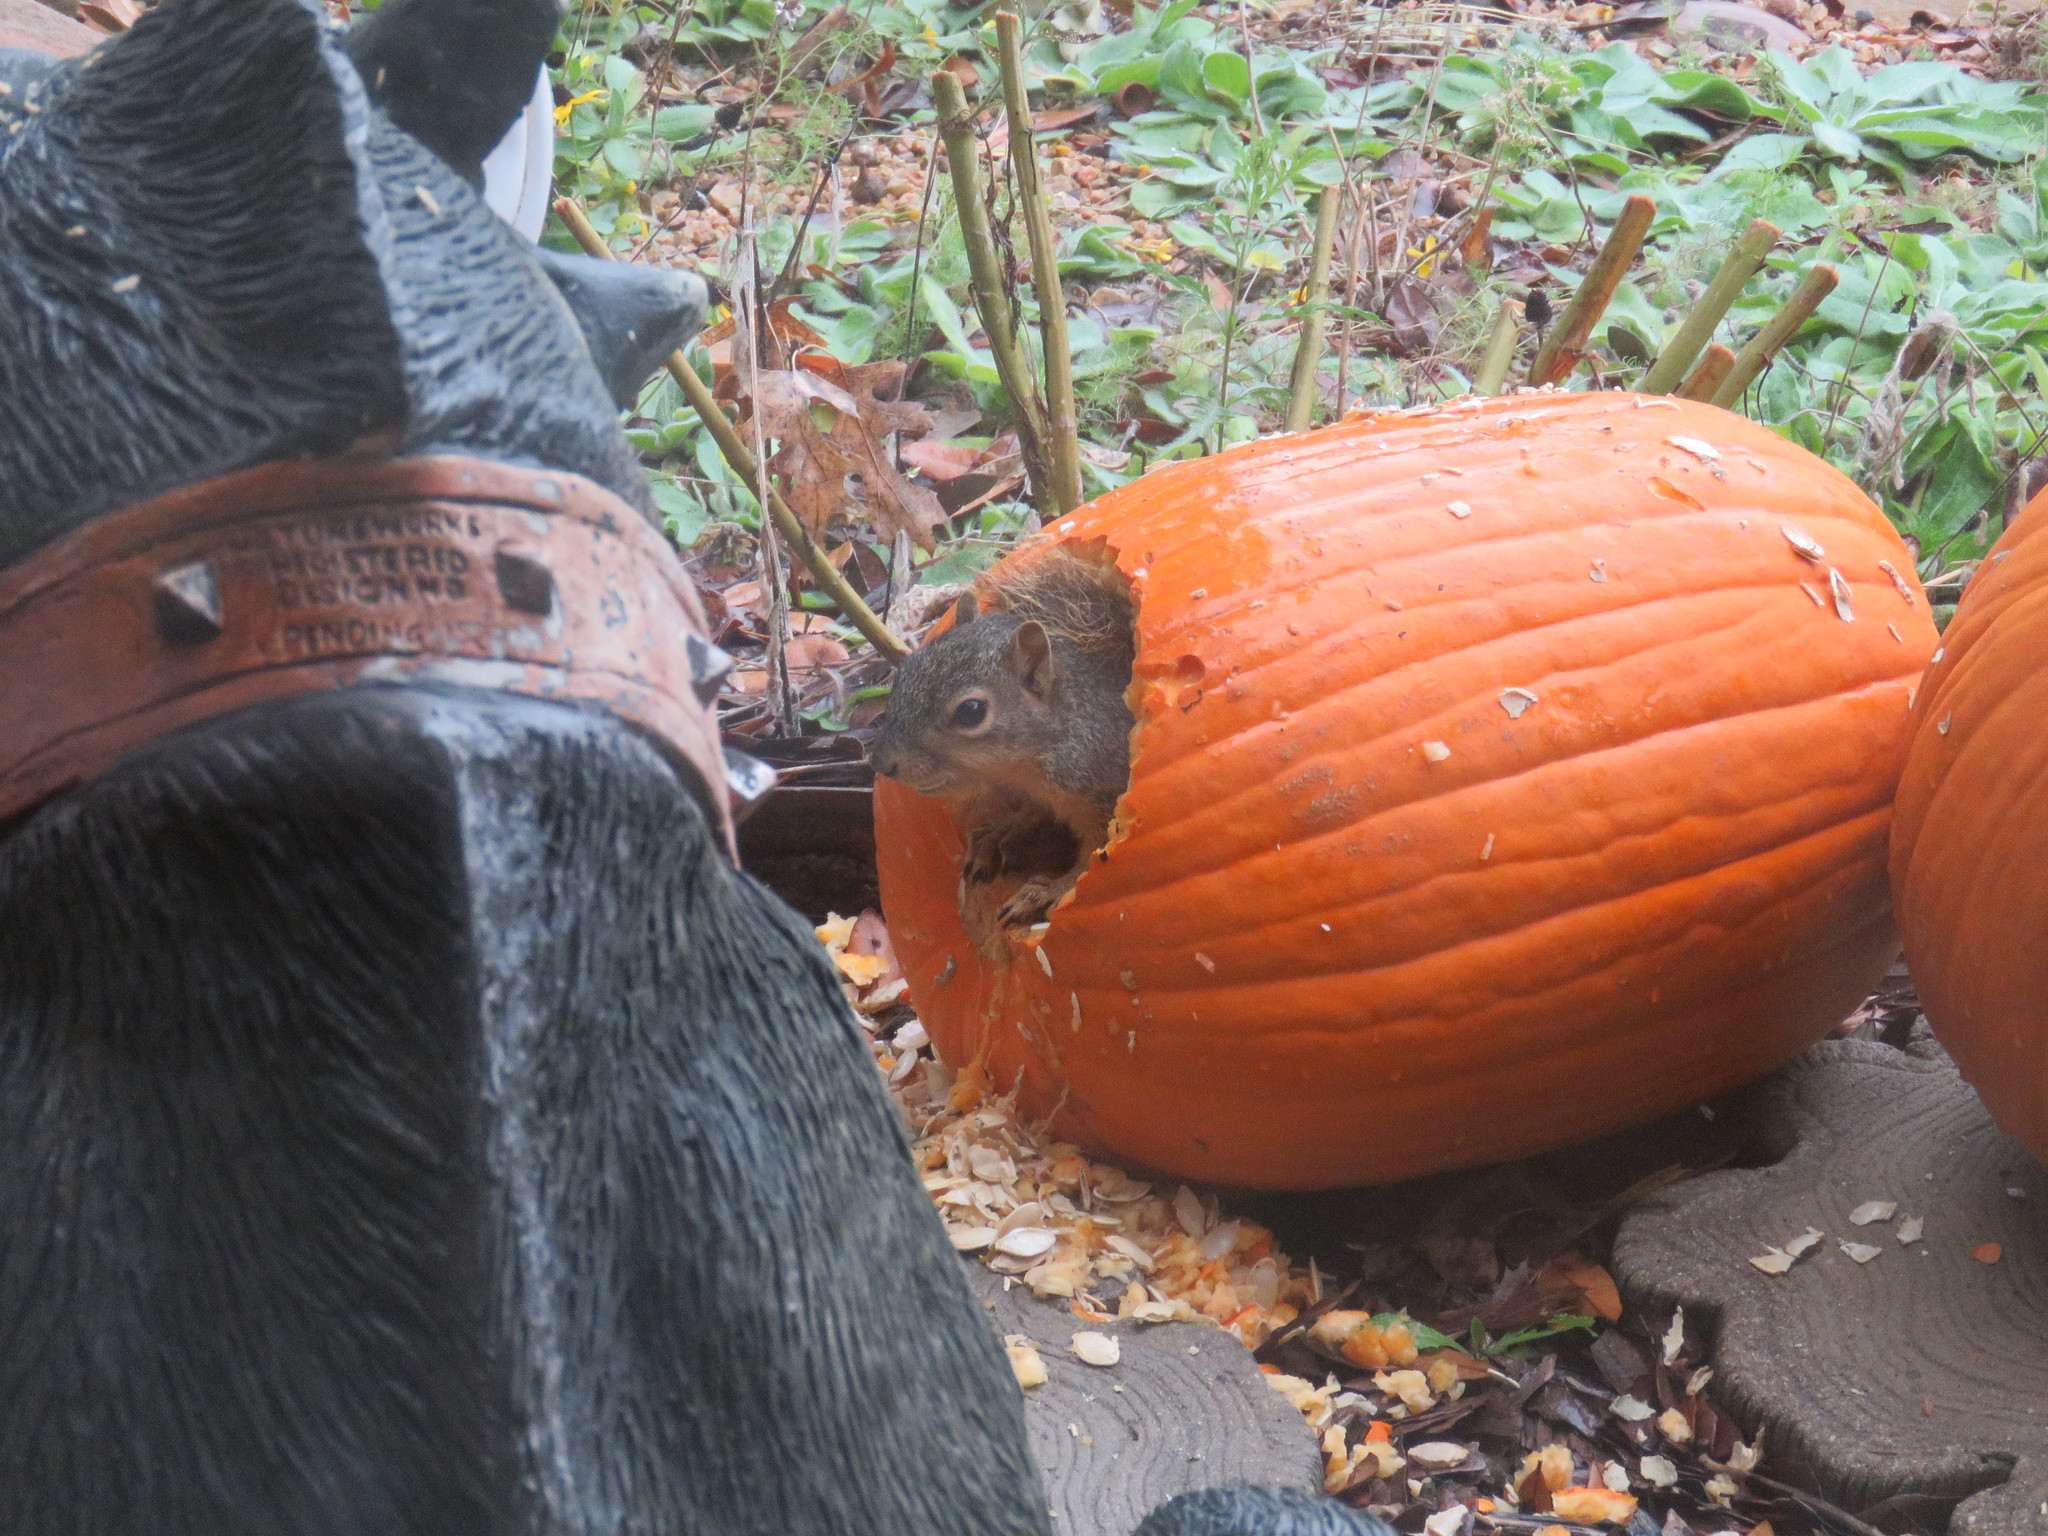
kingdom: Animalia
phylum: Chordata
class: Mammalia
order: Rodentia
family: Sciuridae
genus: Sciurus
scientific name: Sciurus niger
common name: Fox squirrel
